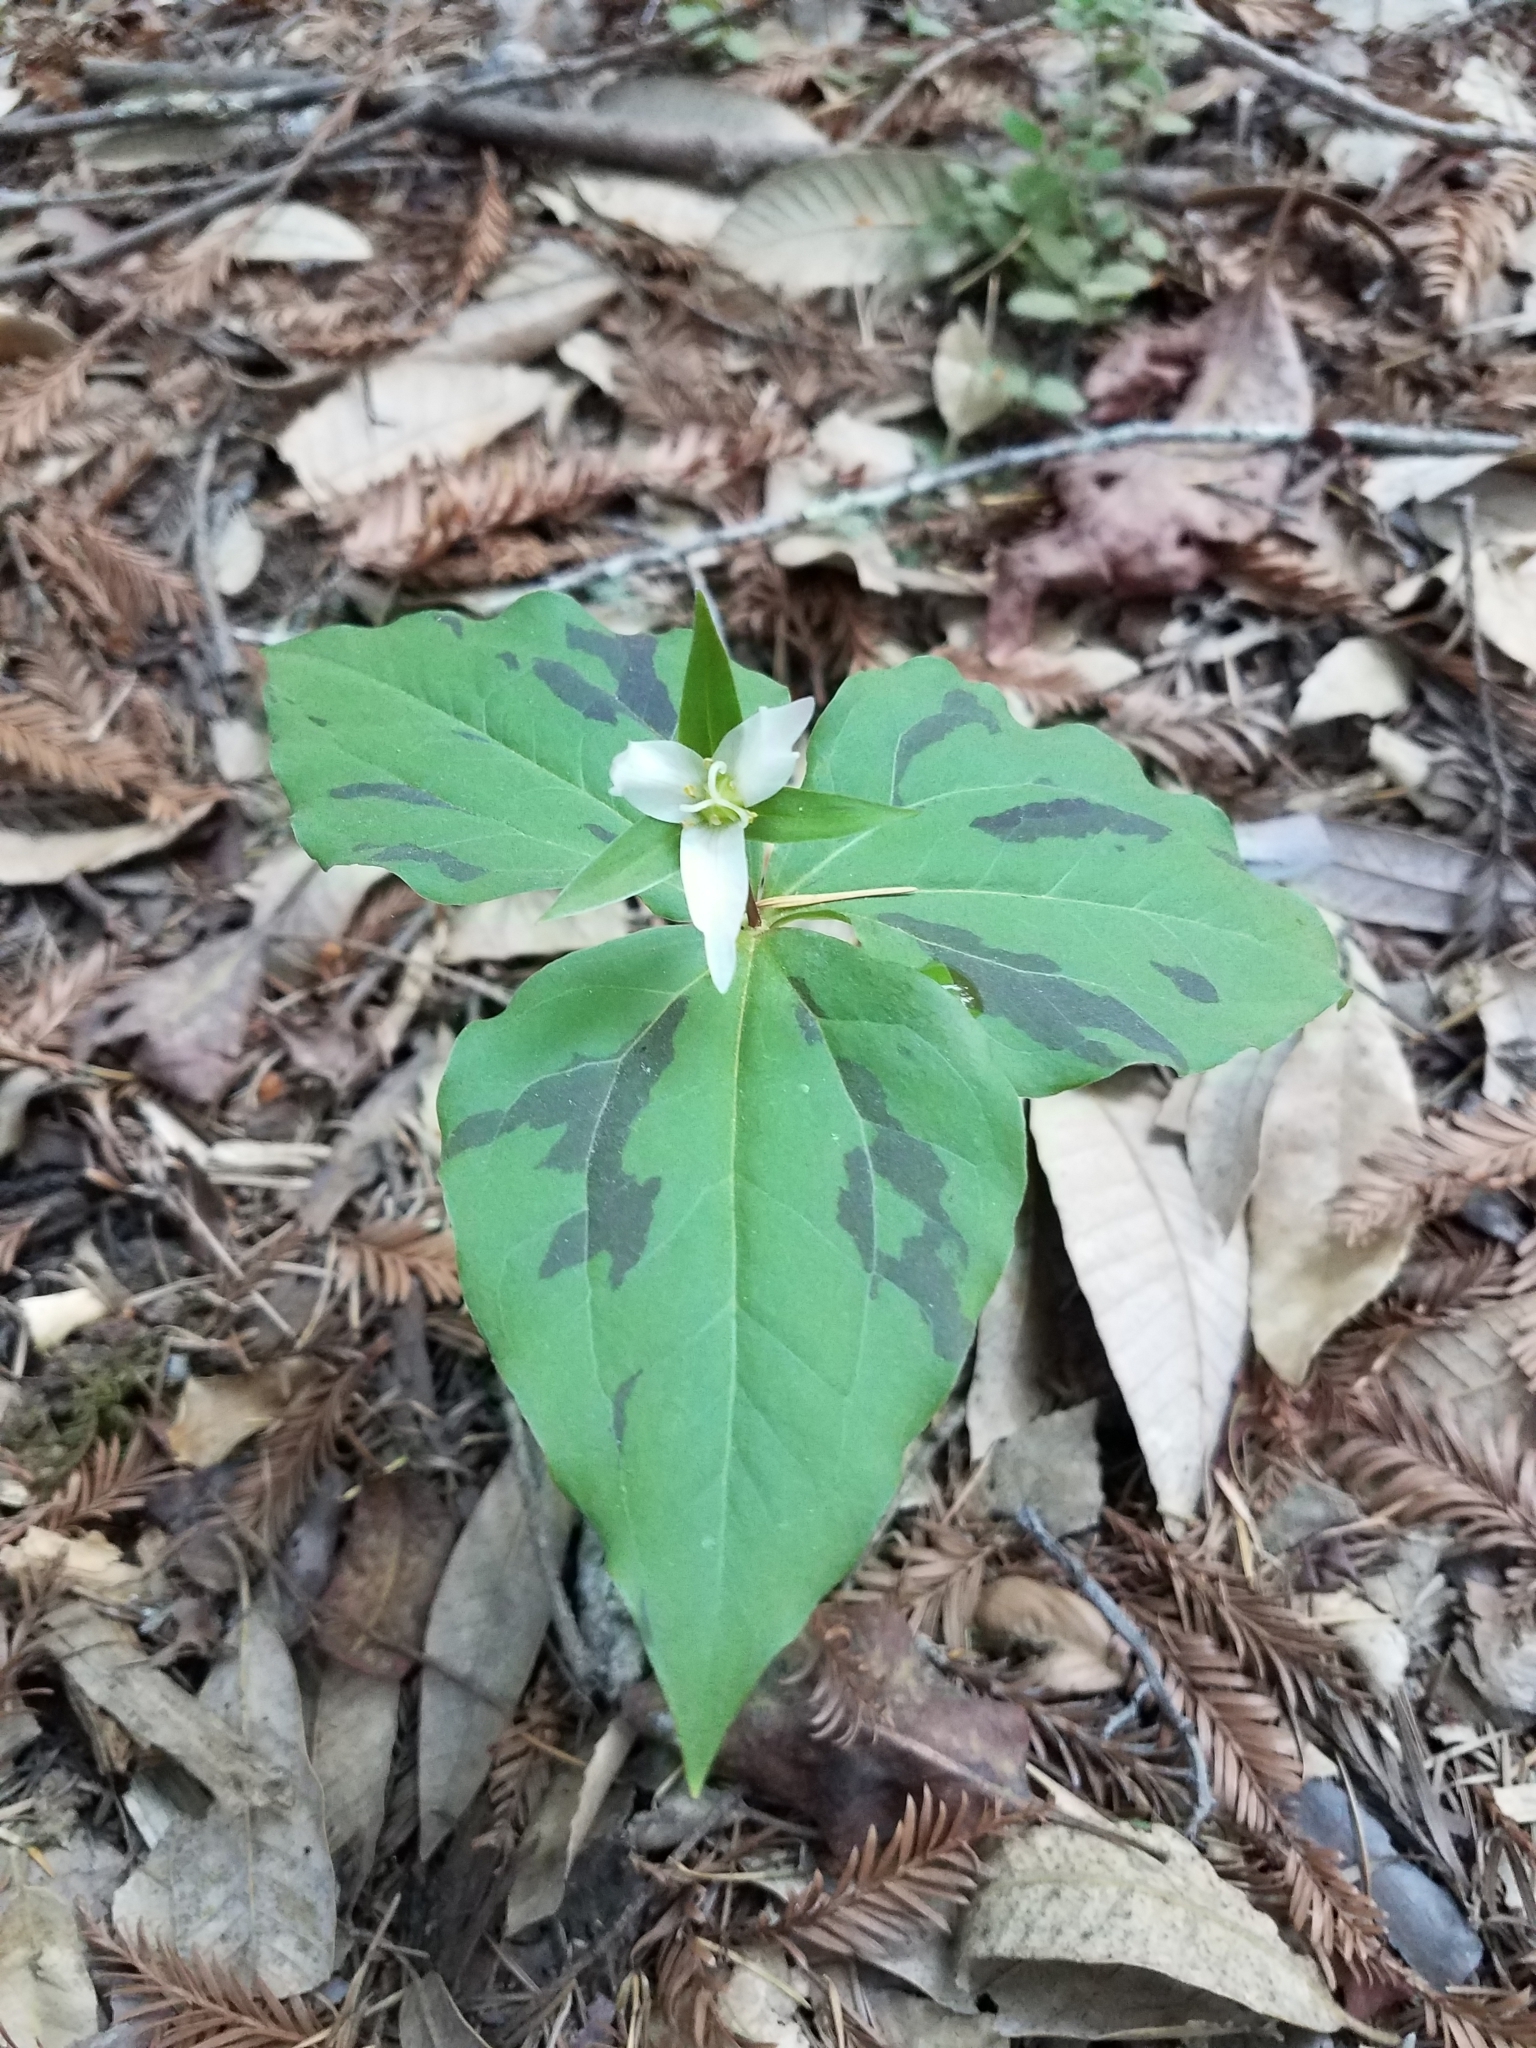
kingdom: Plantae
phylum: Tracheophyta
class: Liliopsida
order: Liliales
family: Melanthiaceae
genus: Trillium
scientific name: Trillium ovatum
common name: Pacific trillium
